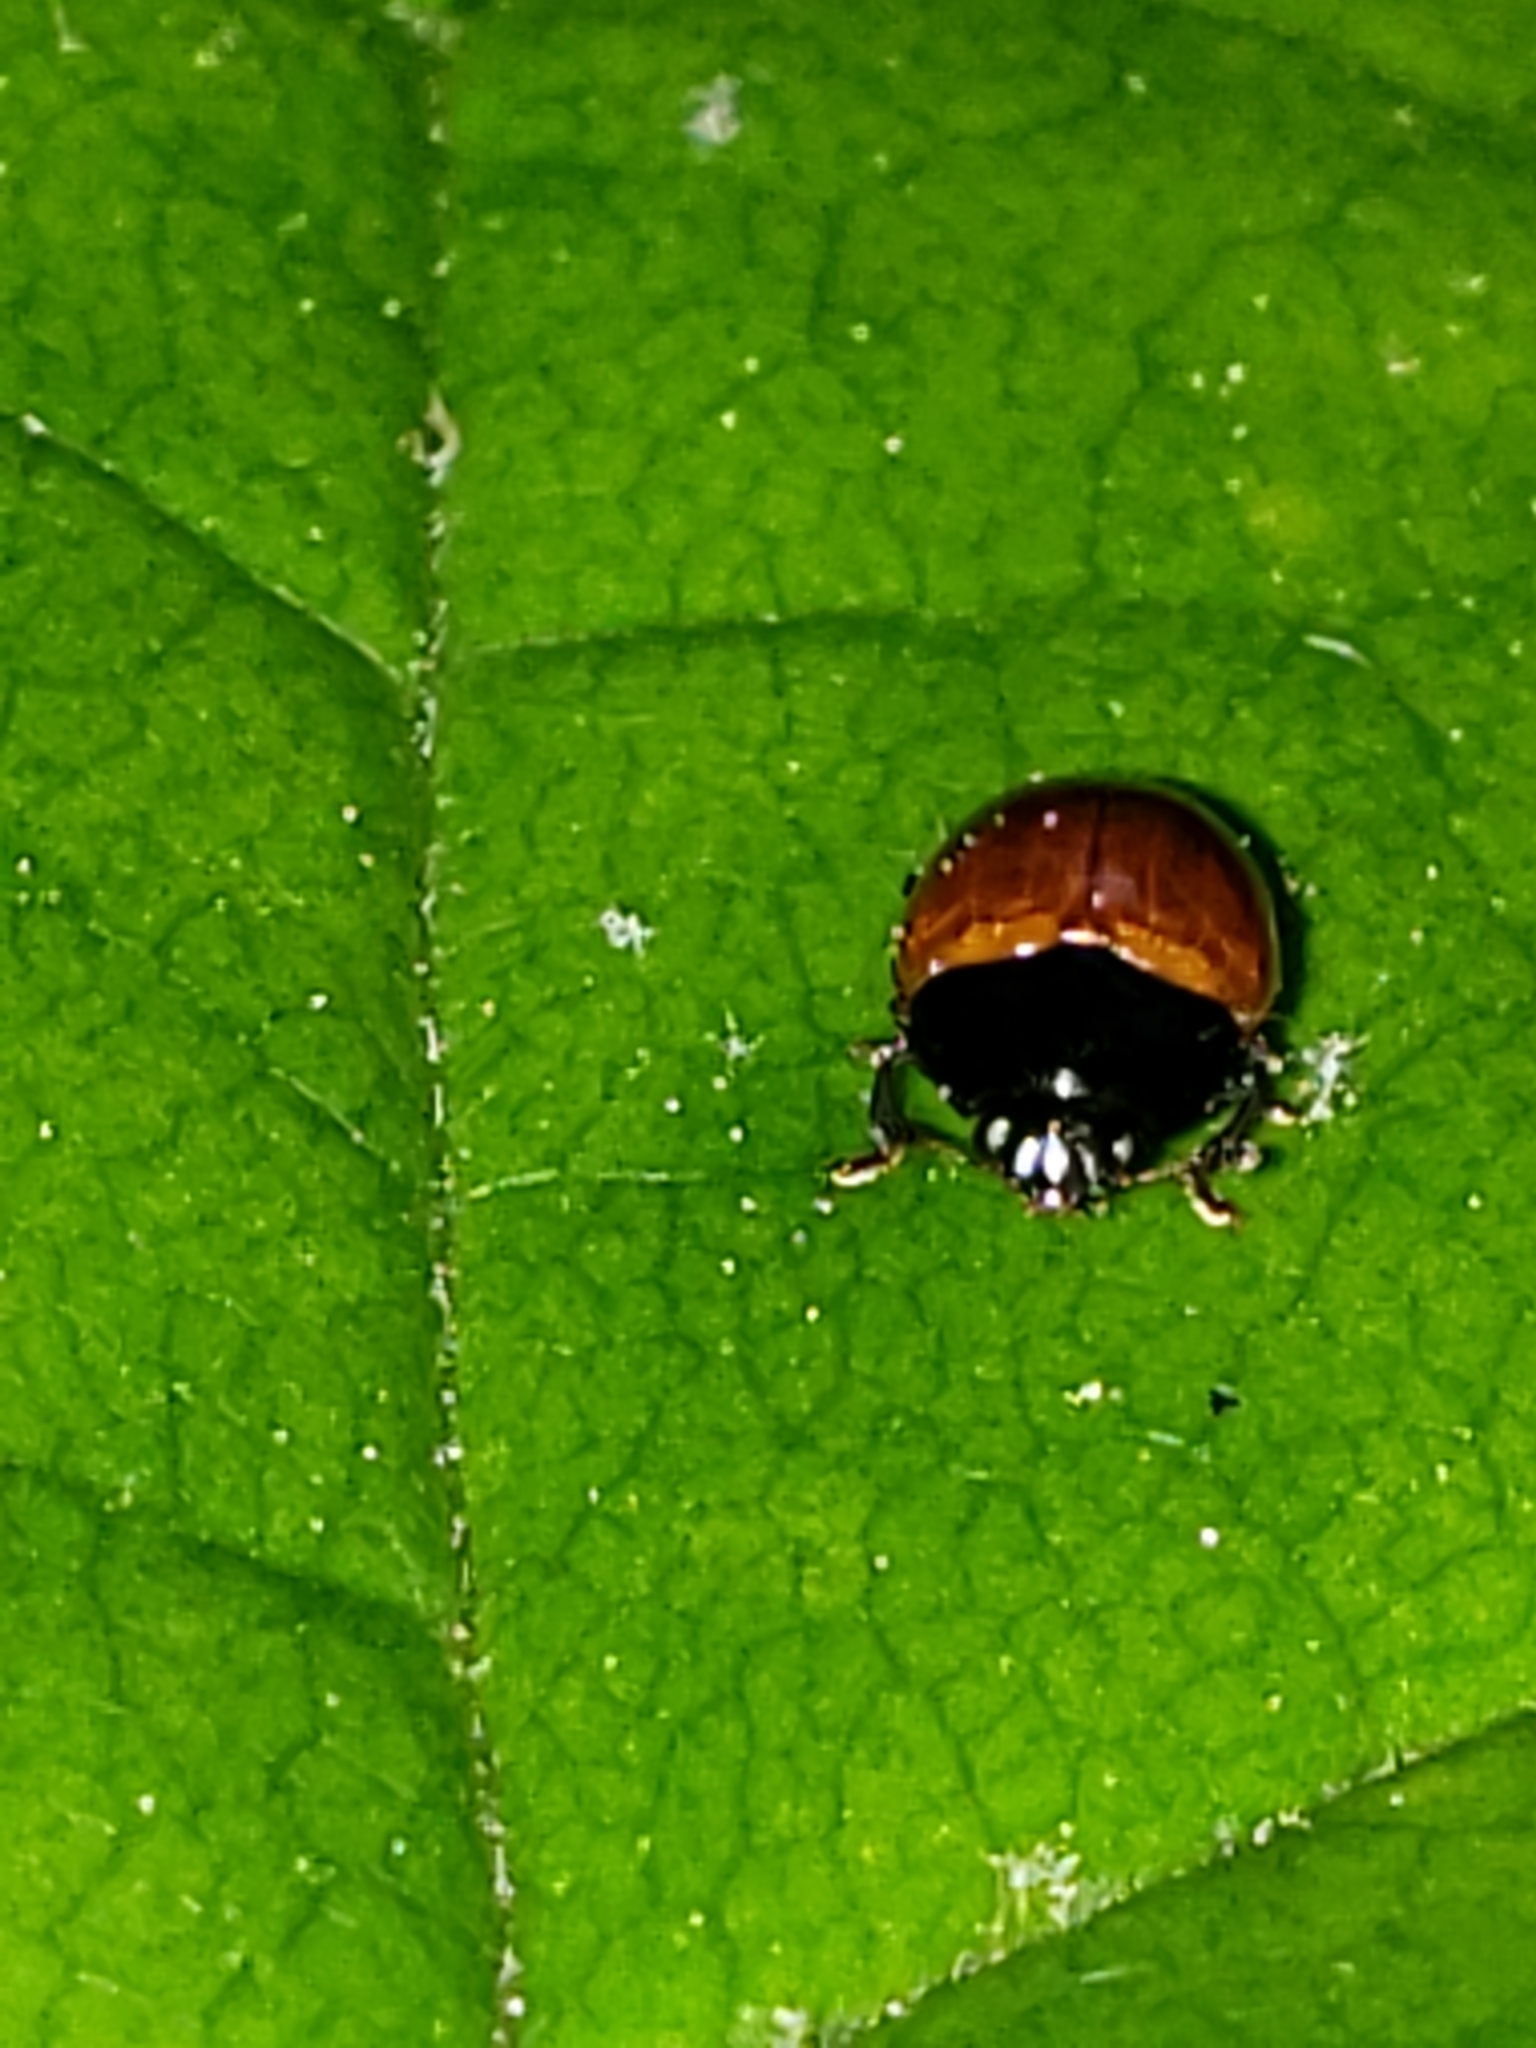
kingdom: Animalia
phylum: Arthropoda
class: Insecta
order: Coleoptera
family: Erotylidae
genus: Tritoma
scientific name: Tritoma sanguinipennis
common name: Red-winged tritoma
